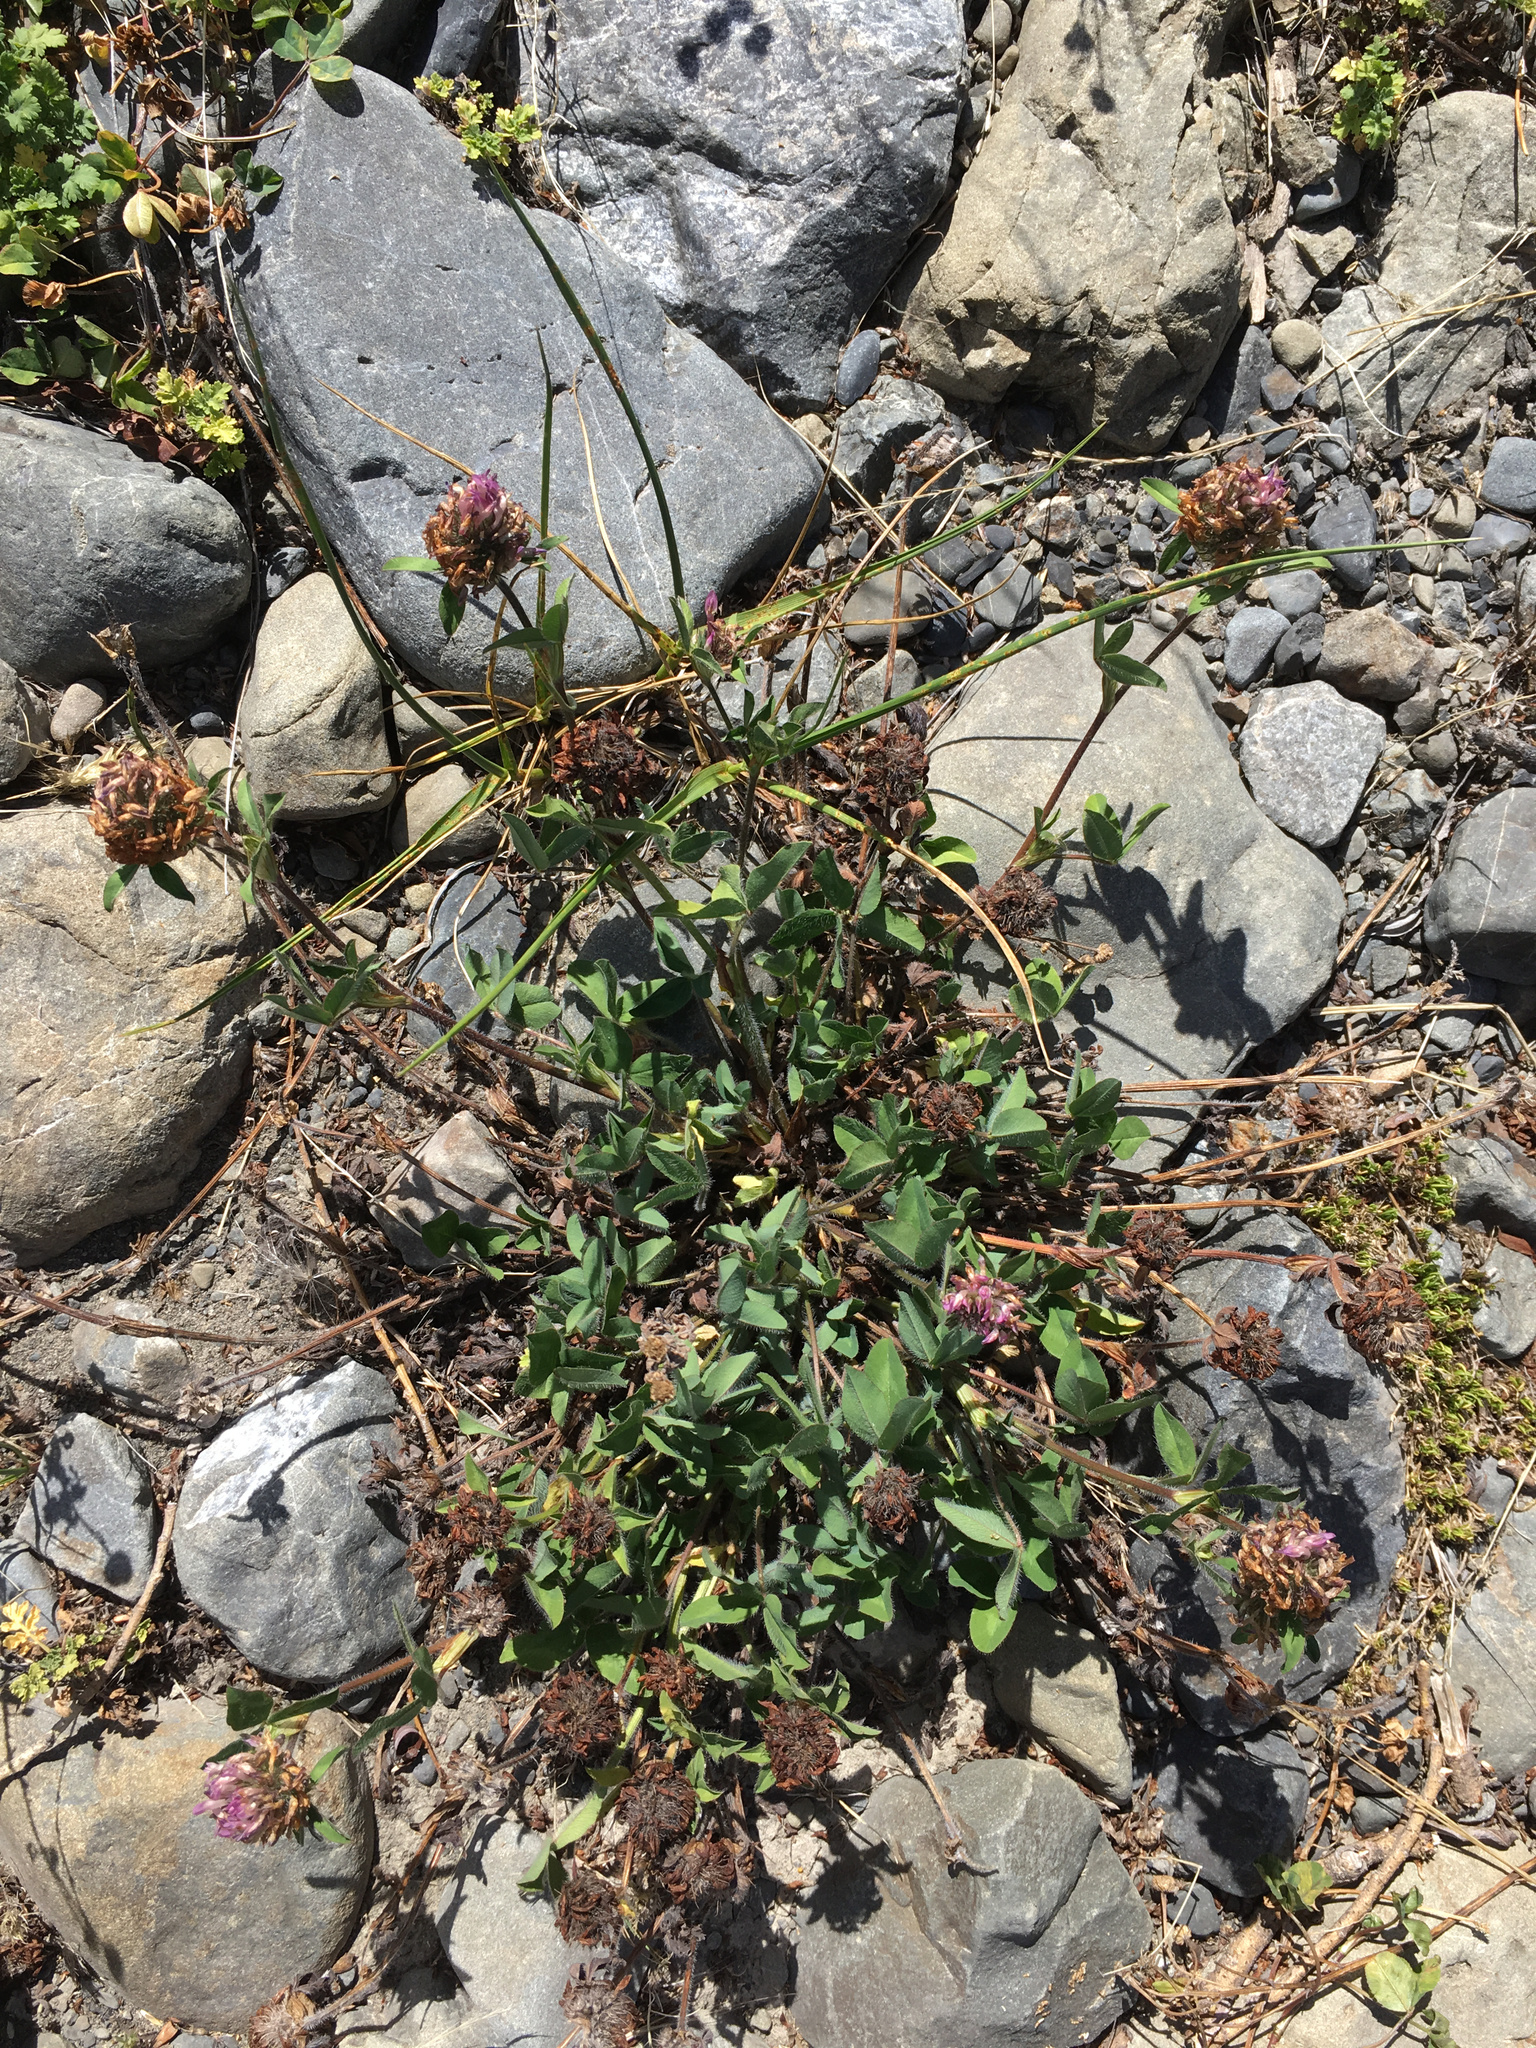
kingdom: Plantae
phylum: Tracheophyta
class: Magnoliopsida
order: Fabales
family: Fabaceae
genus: Trifolium
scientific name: Trifolium pratense
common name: Red clover
